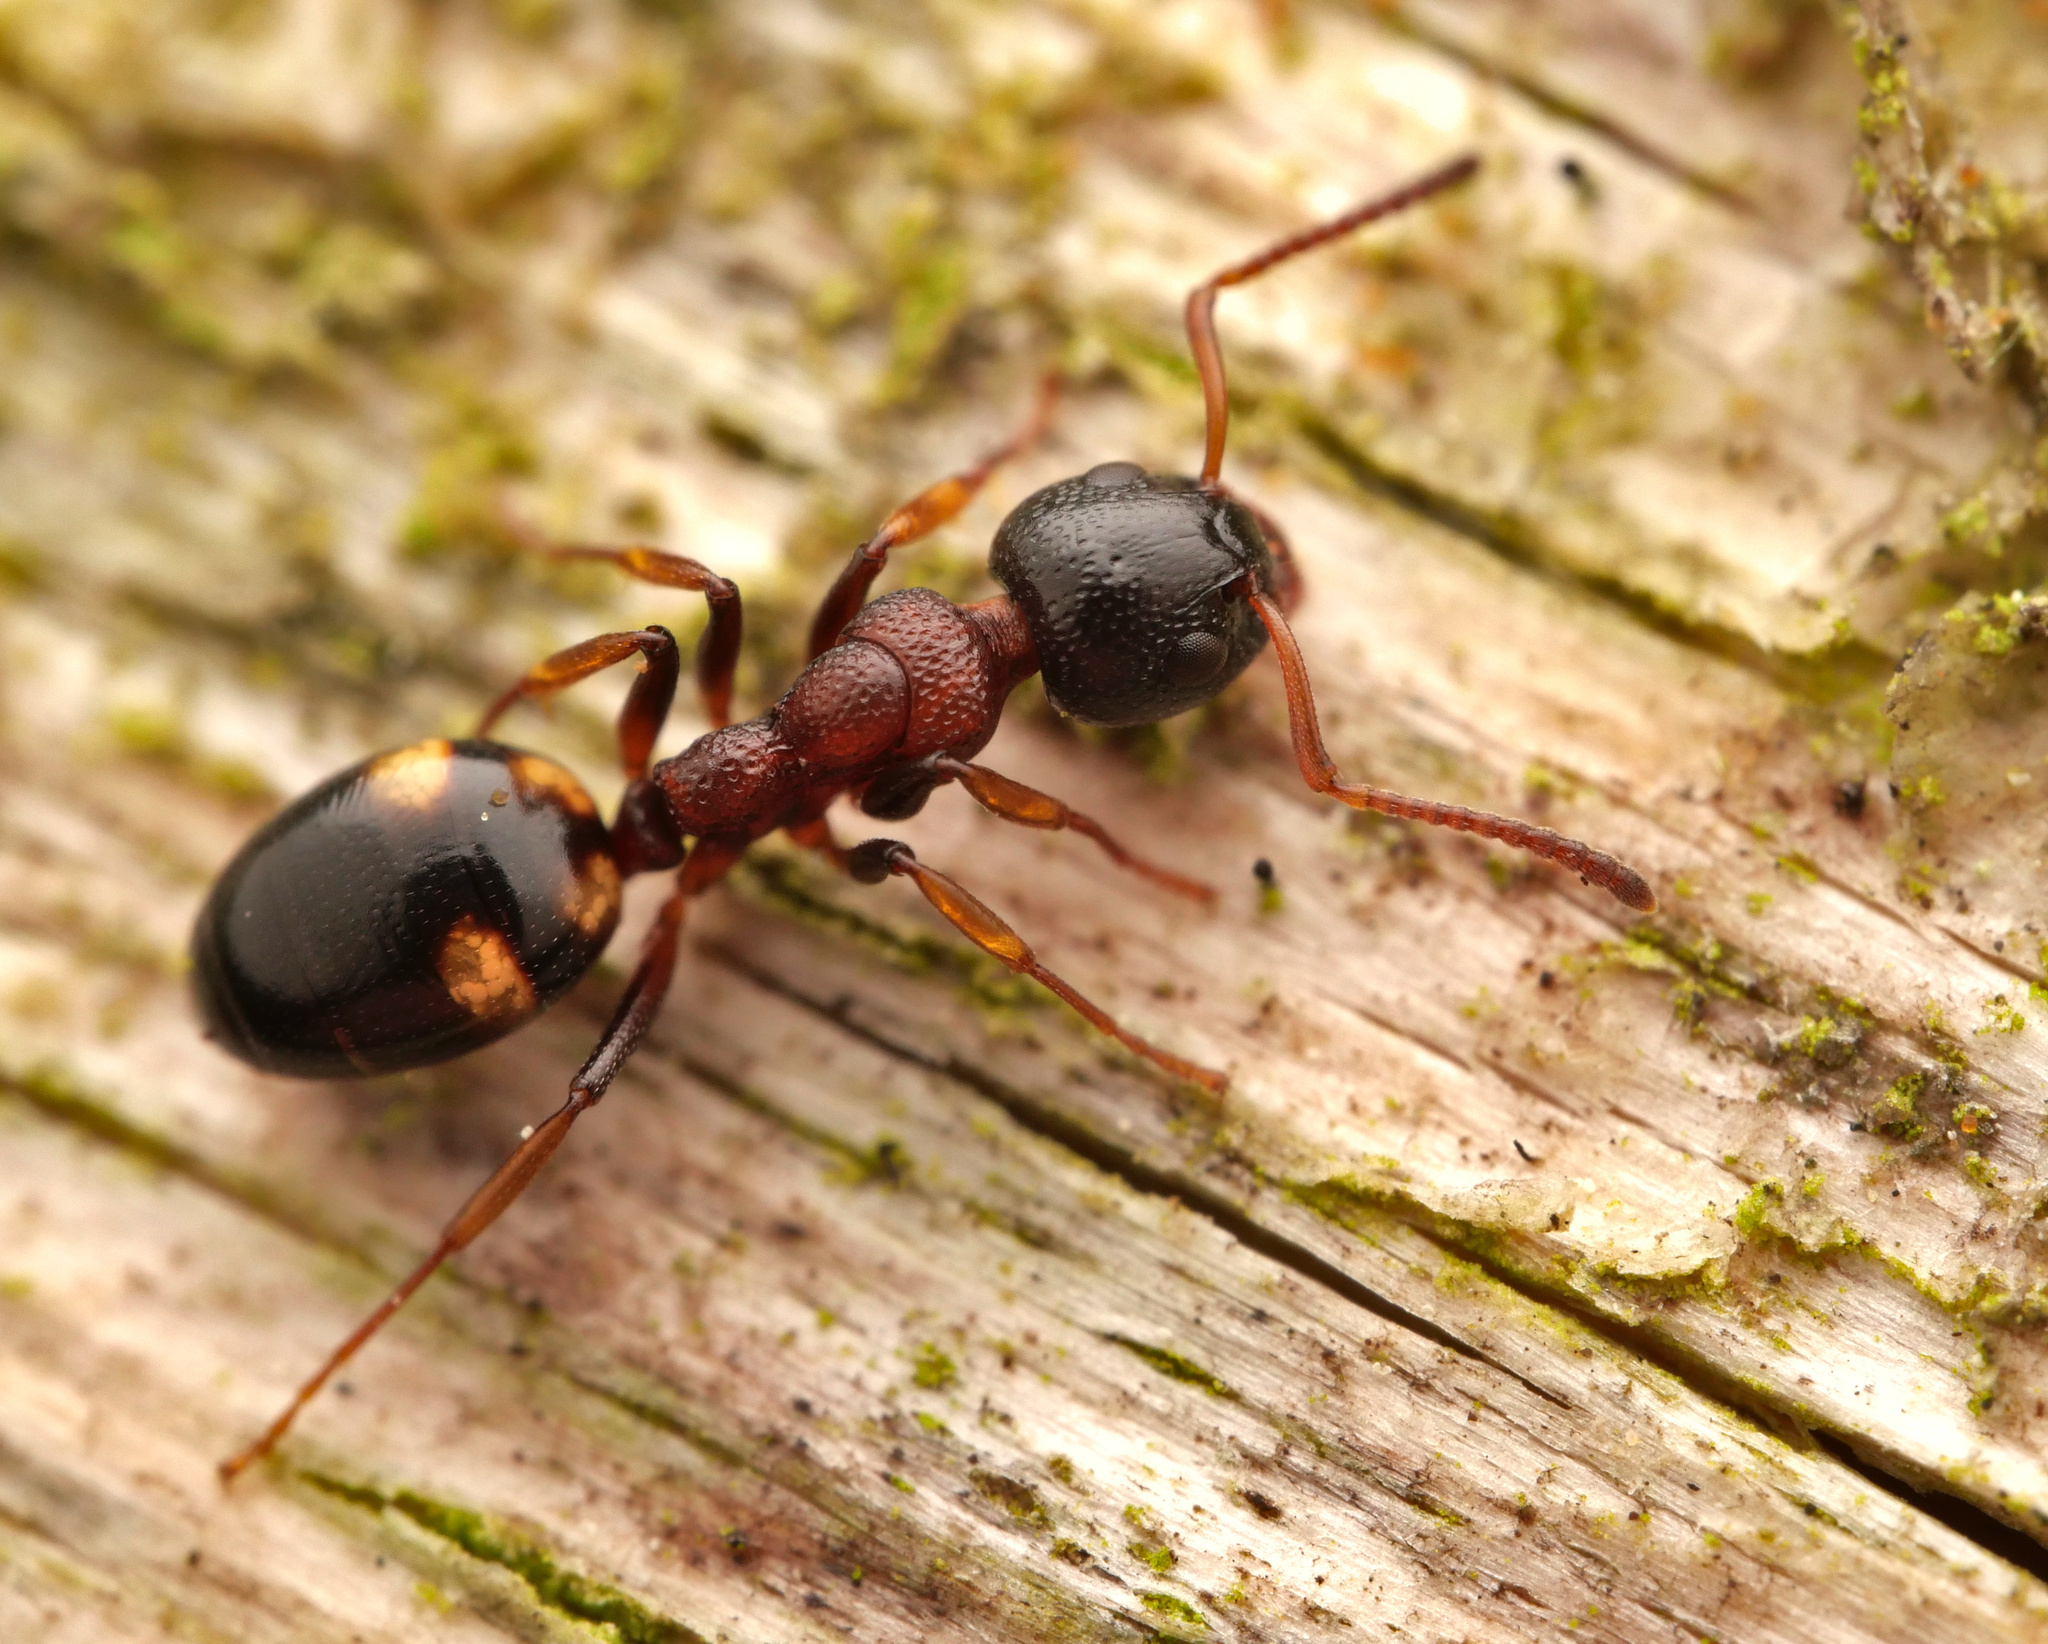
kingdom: Animalia
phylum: Arthropoda
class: Insecta
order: Hymenoptera
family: Formicidae
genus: Dolichoderus
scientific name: Dolichoderus quadripunctatus
